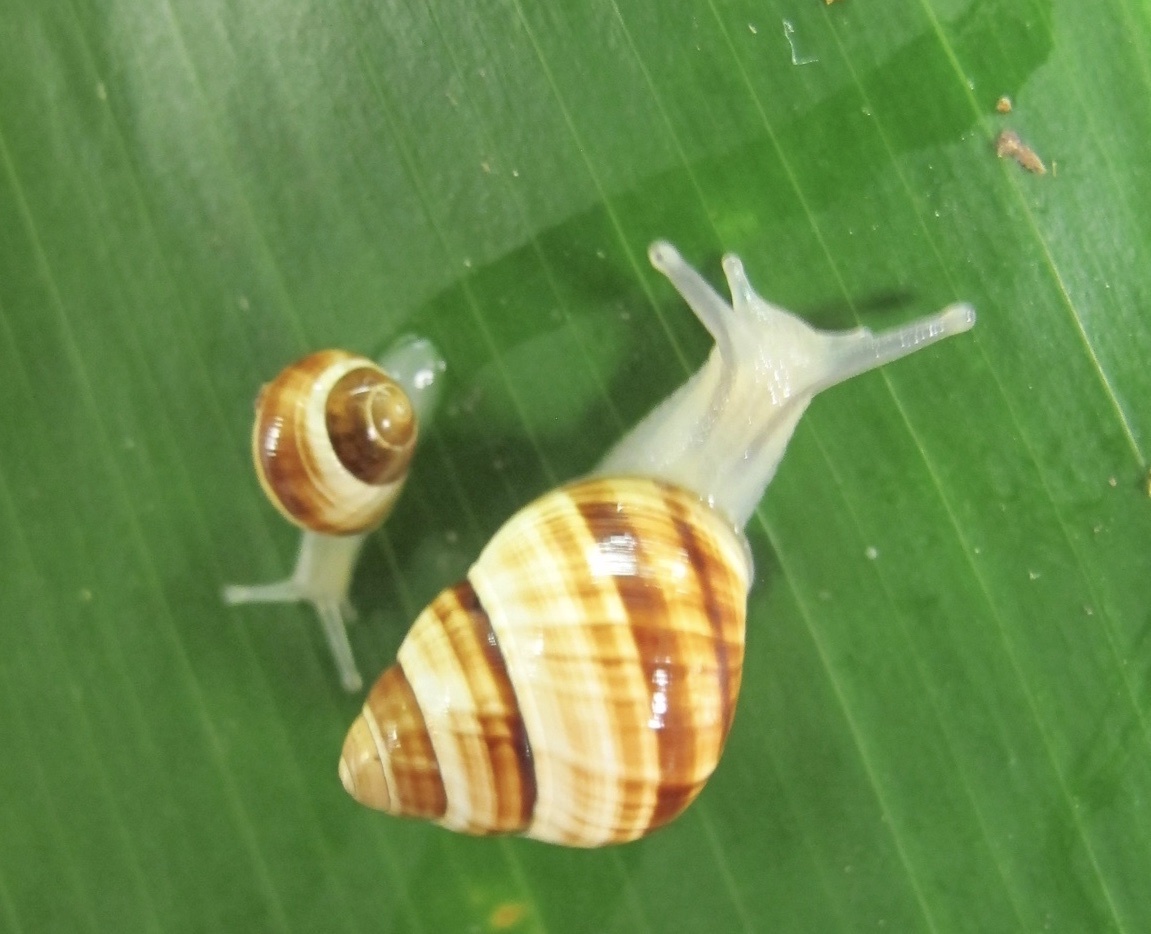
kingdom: Animalia
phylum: Mollusca
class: Gastropoda
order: Stylommatophora
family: Achatinellidae
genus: Achatinella
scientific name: Achatinella fuscobasis
